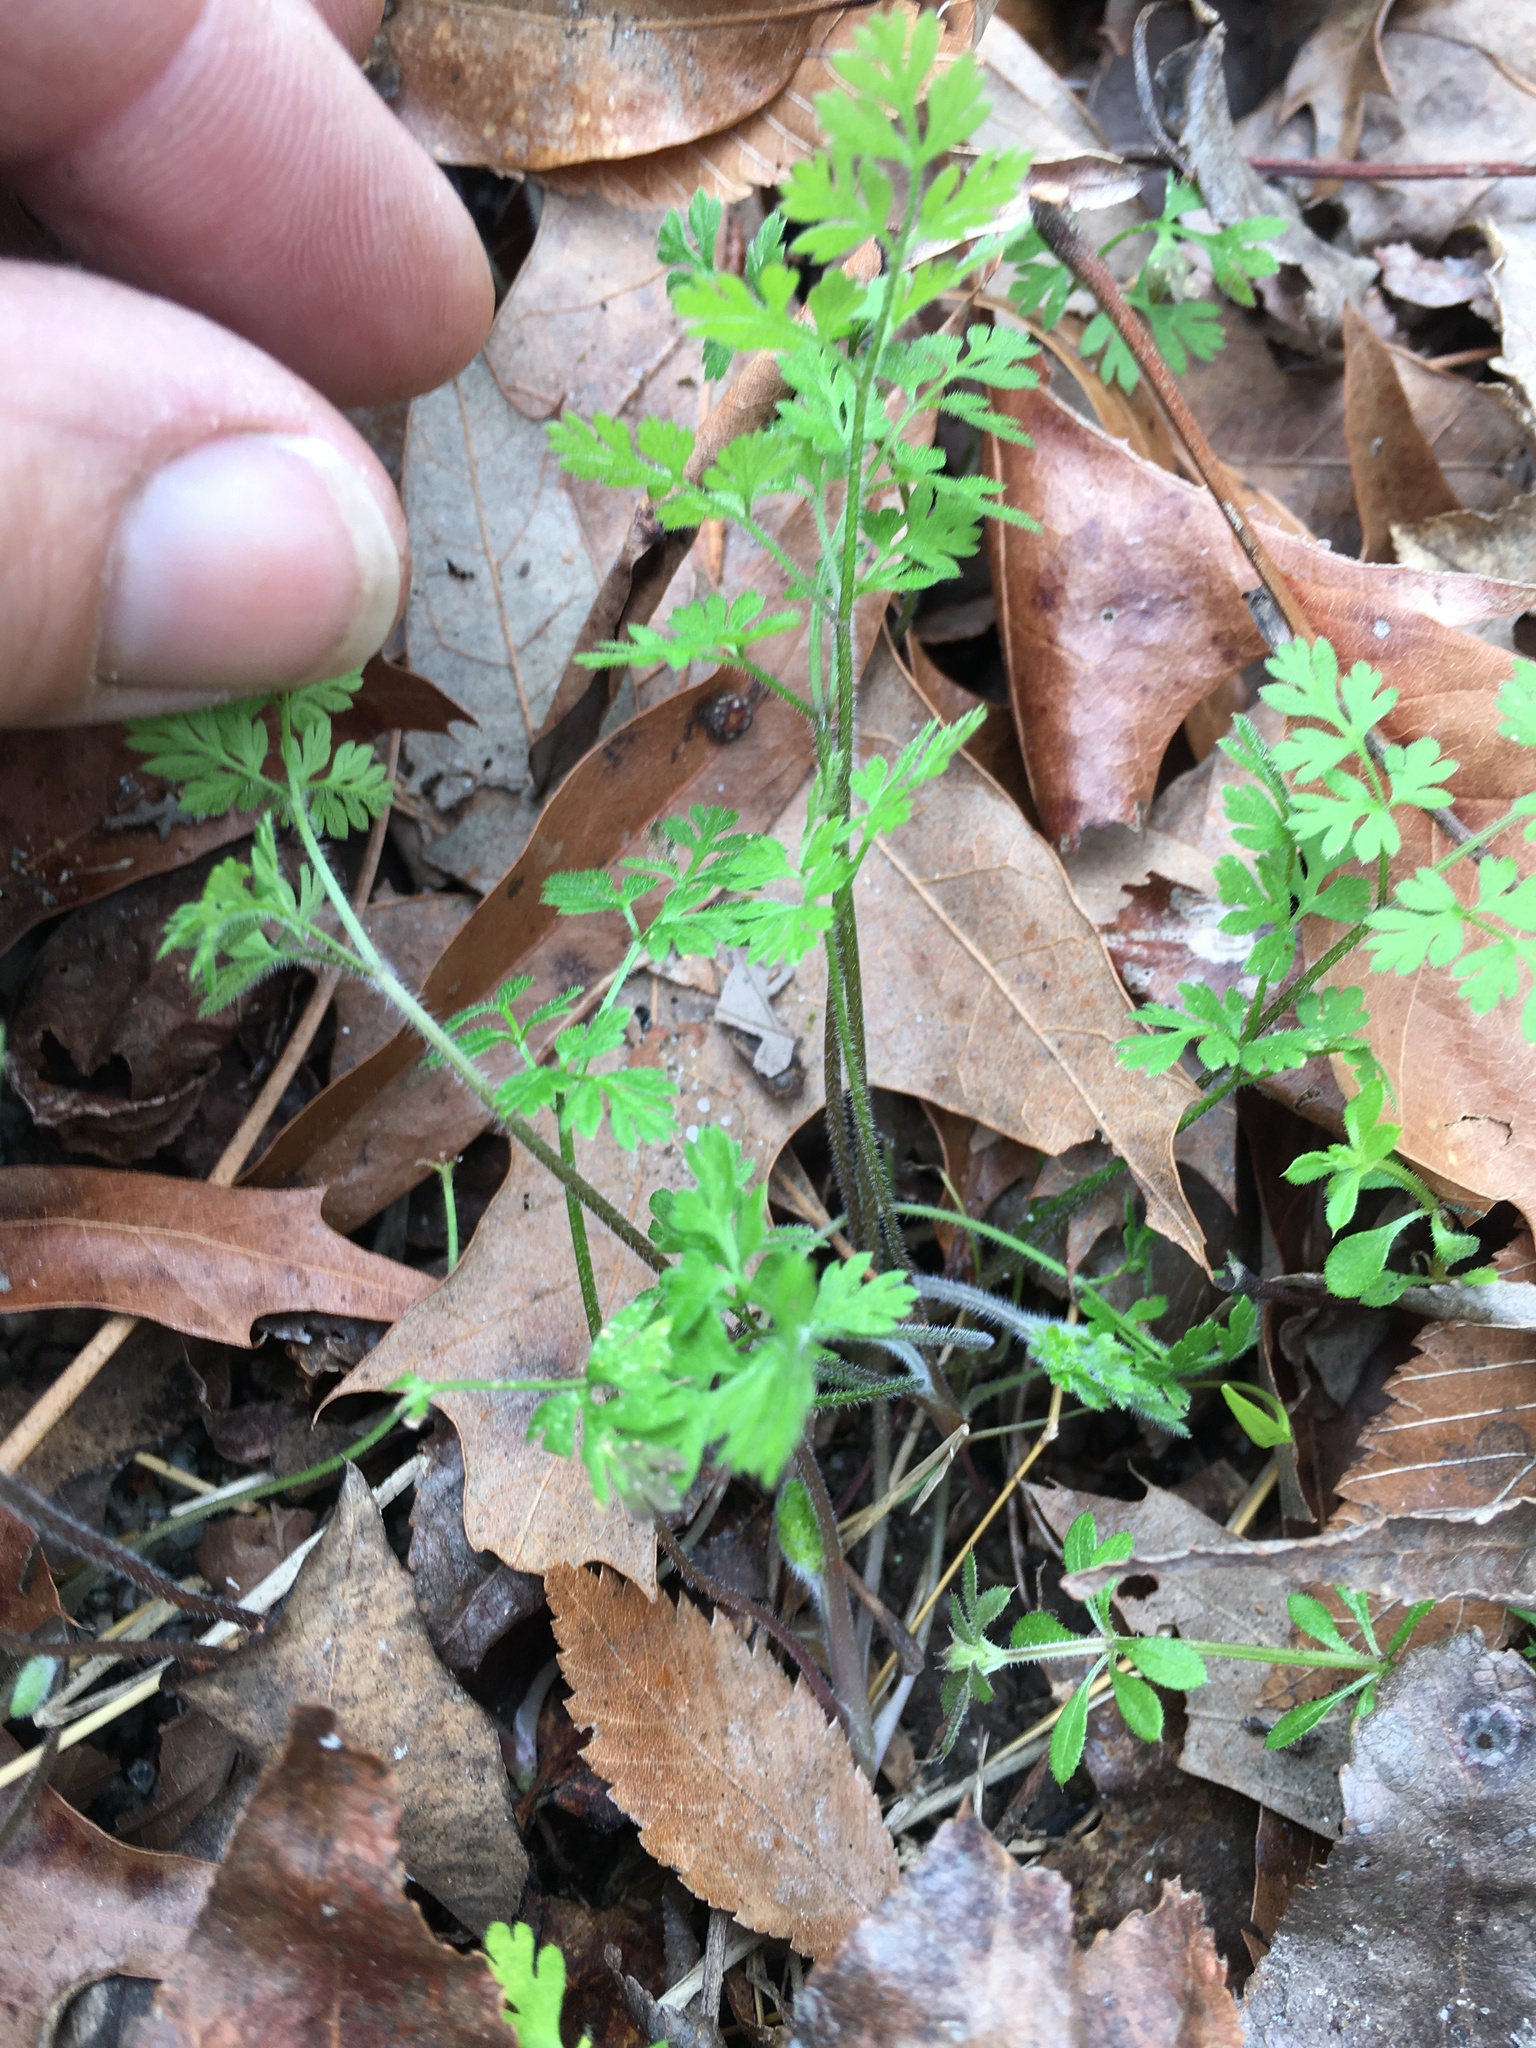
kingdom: Plantae
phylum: Tracheophyta
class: Magnoliopsida
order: Apiales
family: Apiaceae
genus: Chaerophyllum
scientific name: Chaerophyllum tainturieri
